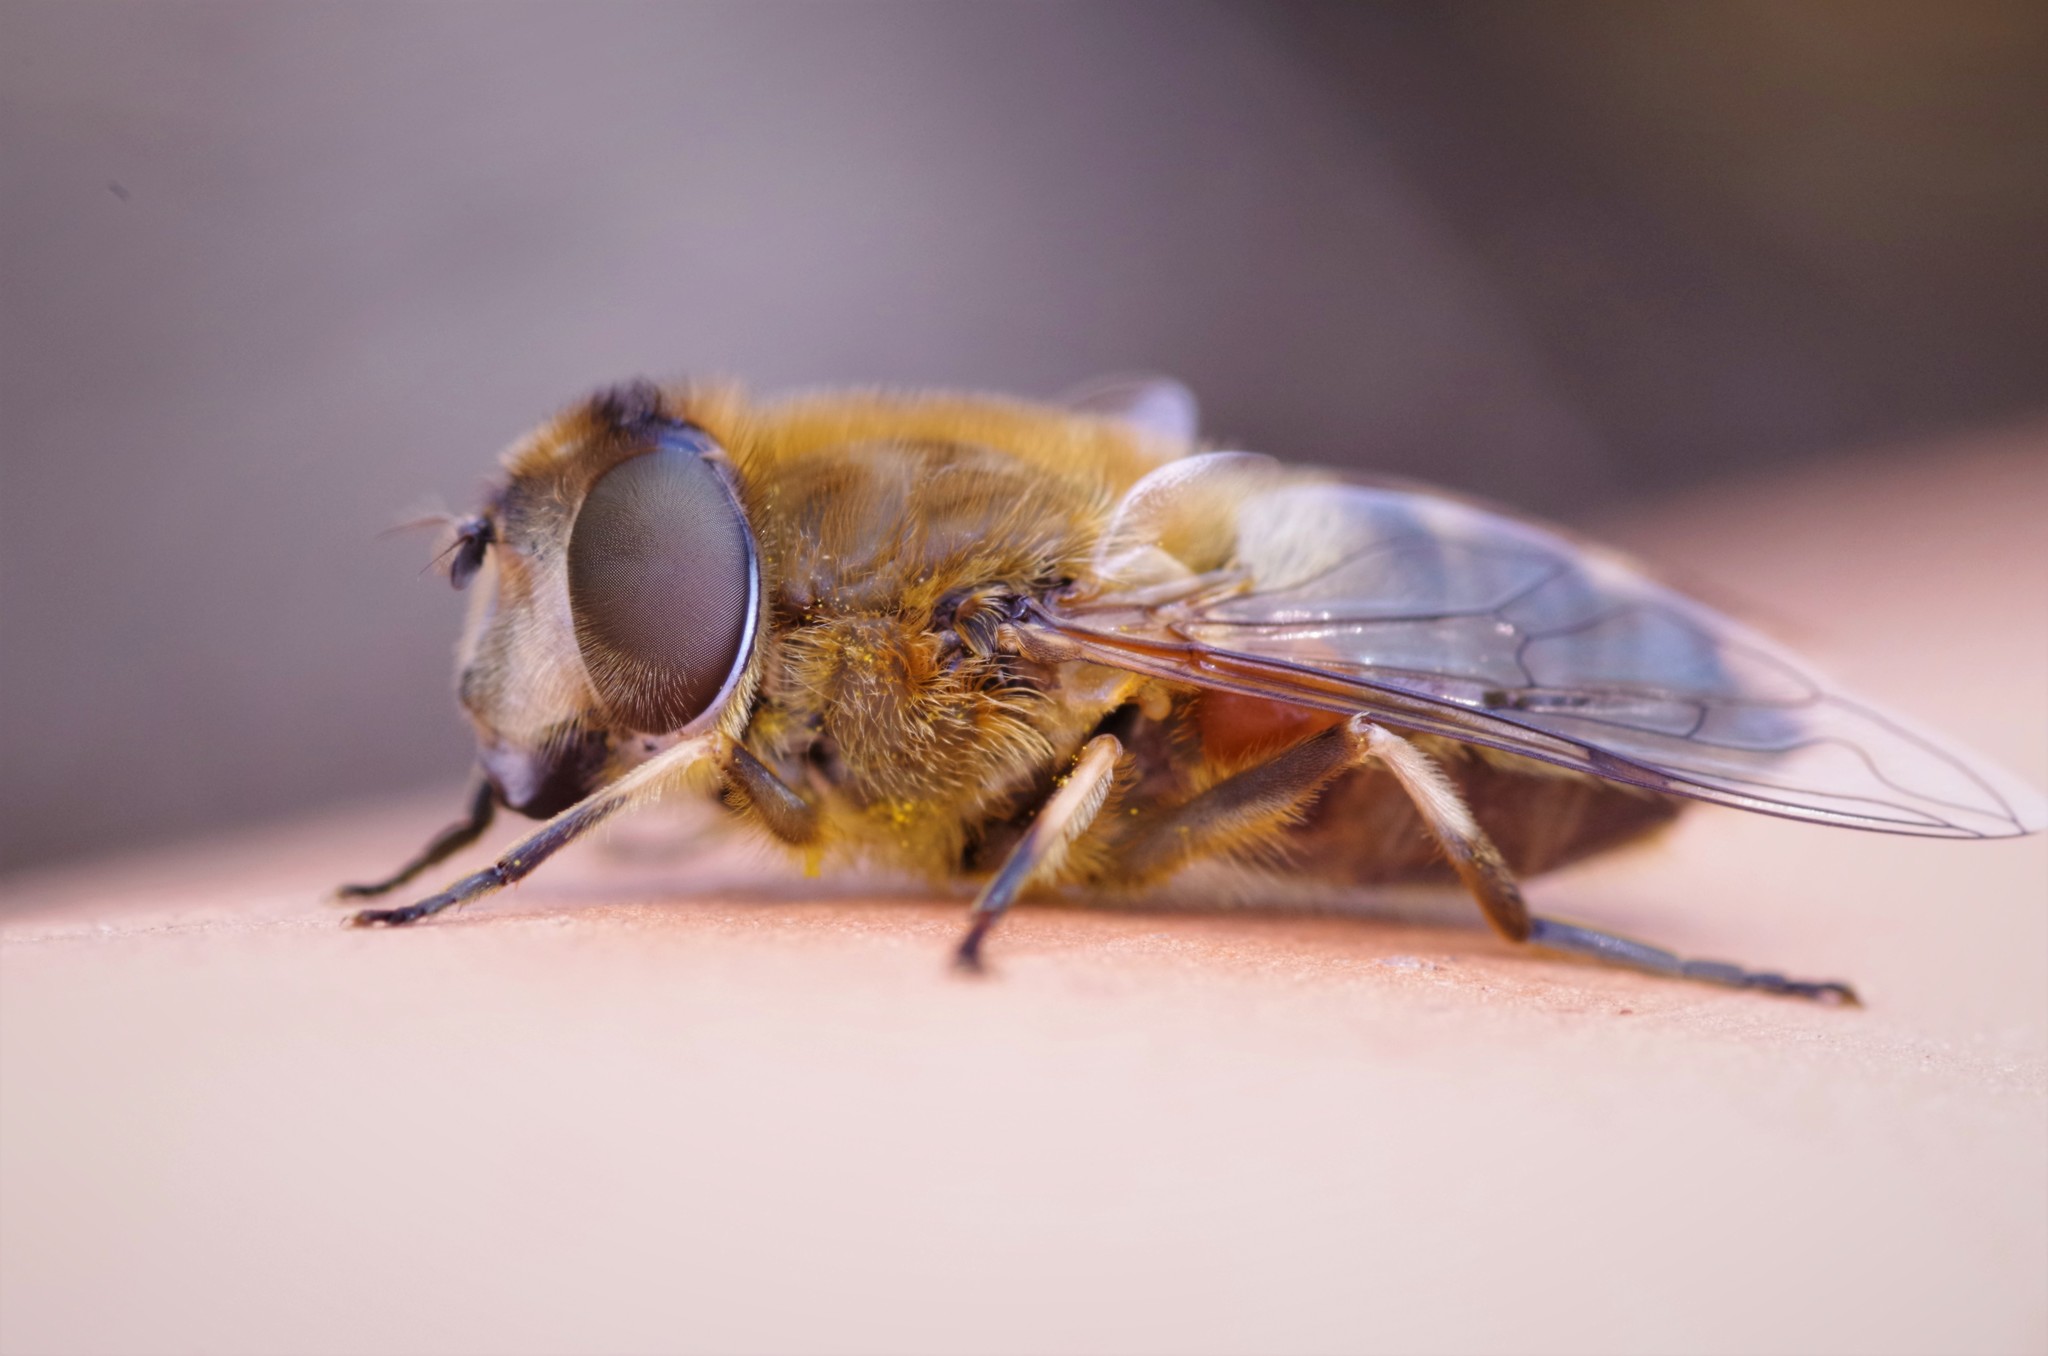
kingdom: Animalia
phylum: Arthropoda
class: Insecta
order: Diptera
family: Syrphidae
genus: Eristalis
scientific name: Eristalis pertinax
